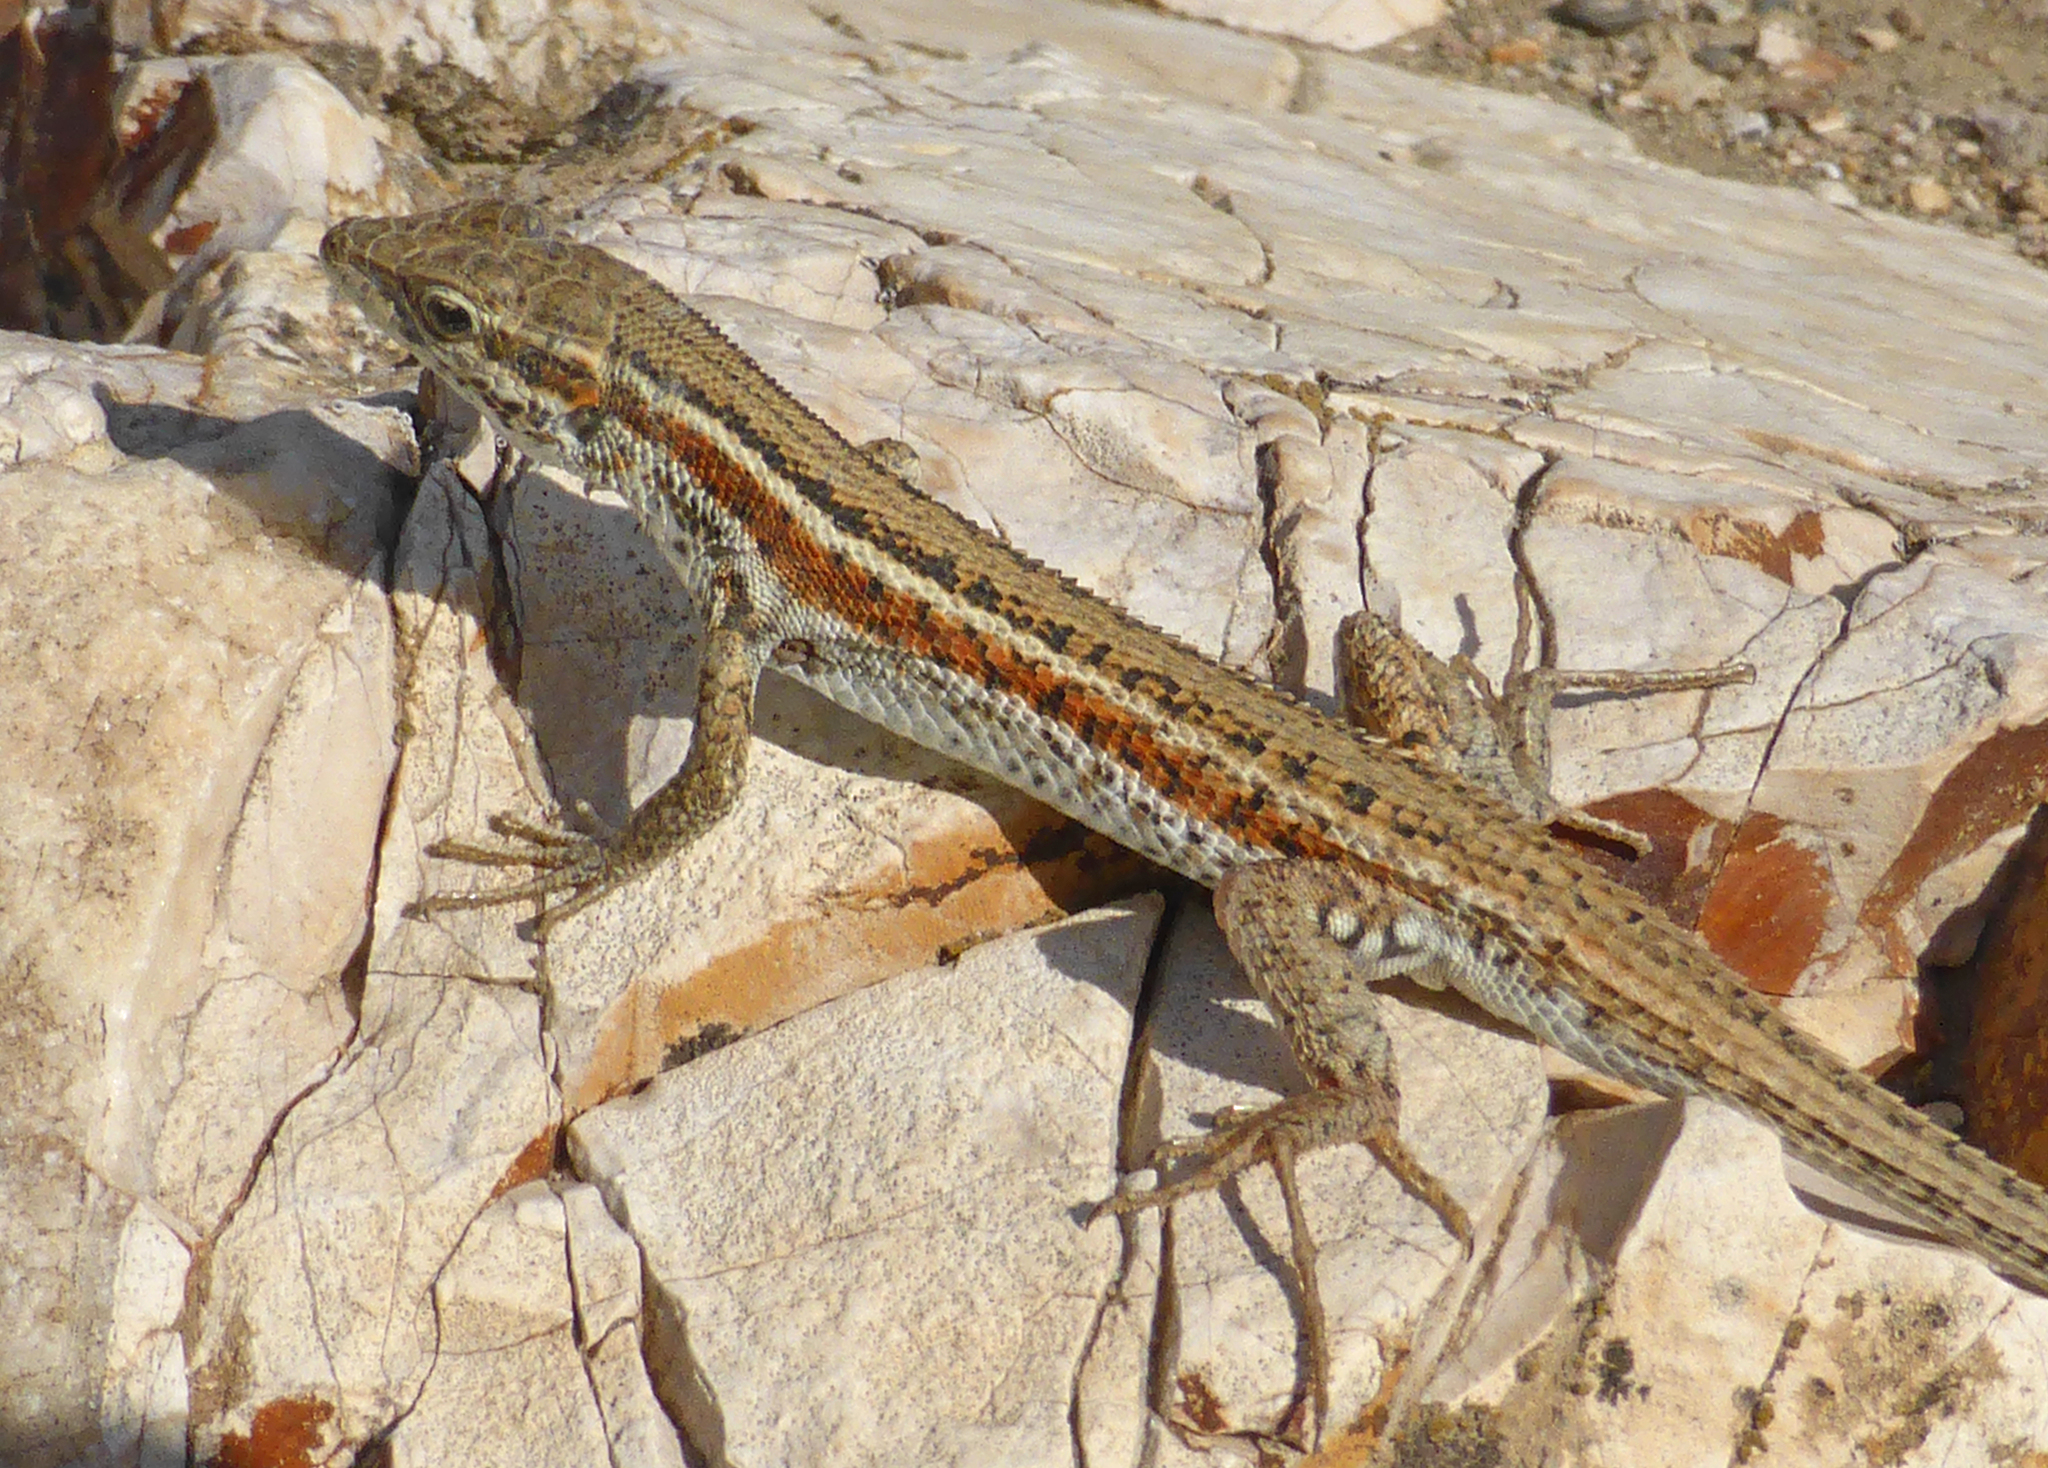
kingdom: Animalia
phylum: Chordata
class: Squamata
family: Lacertidae
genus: Ophisops
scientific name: Ophisops elegans
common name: Snake-eyed lizard
